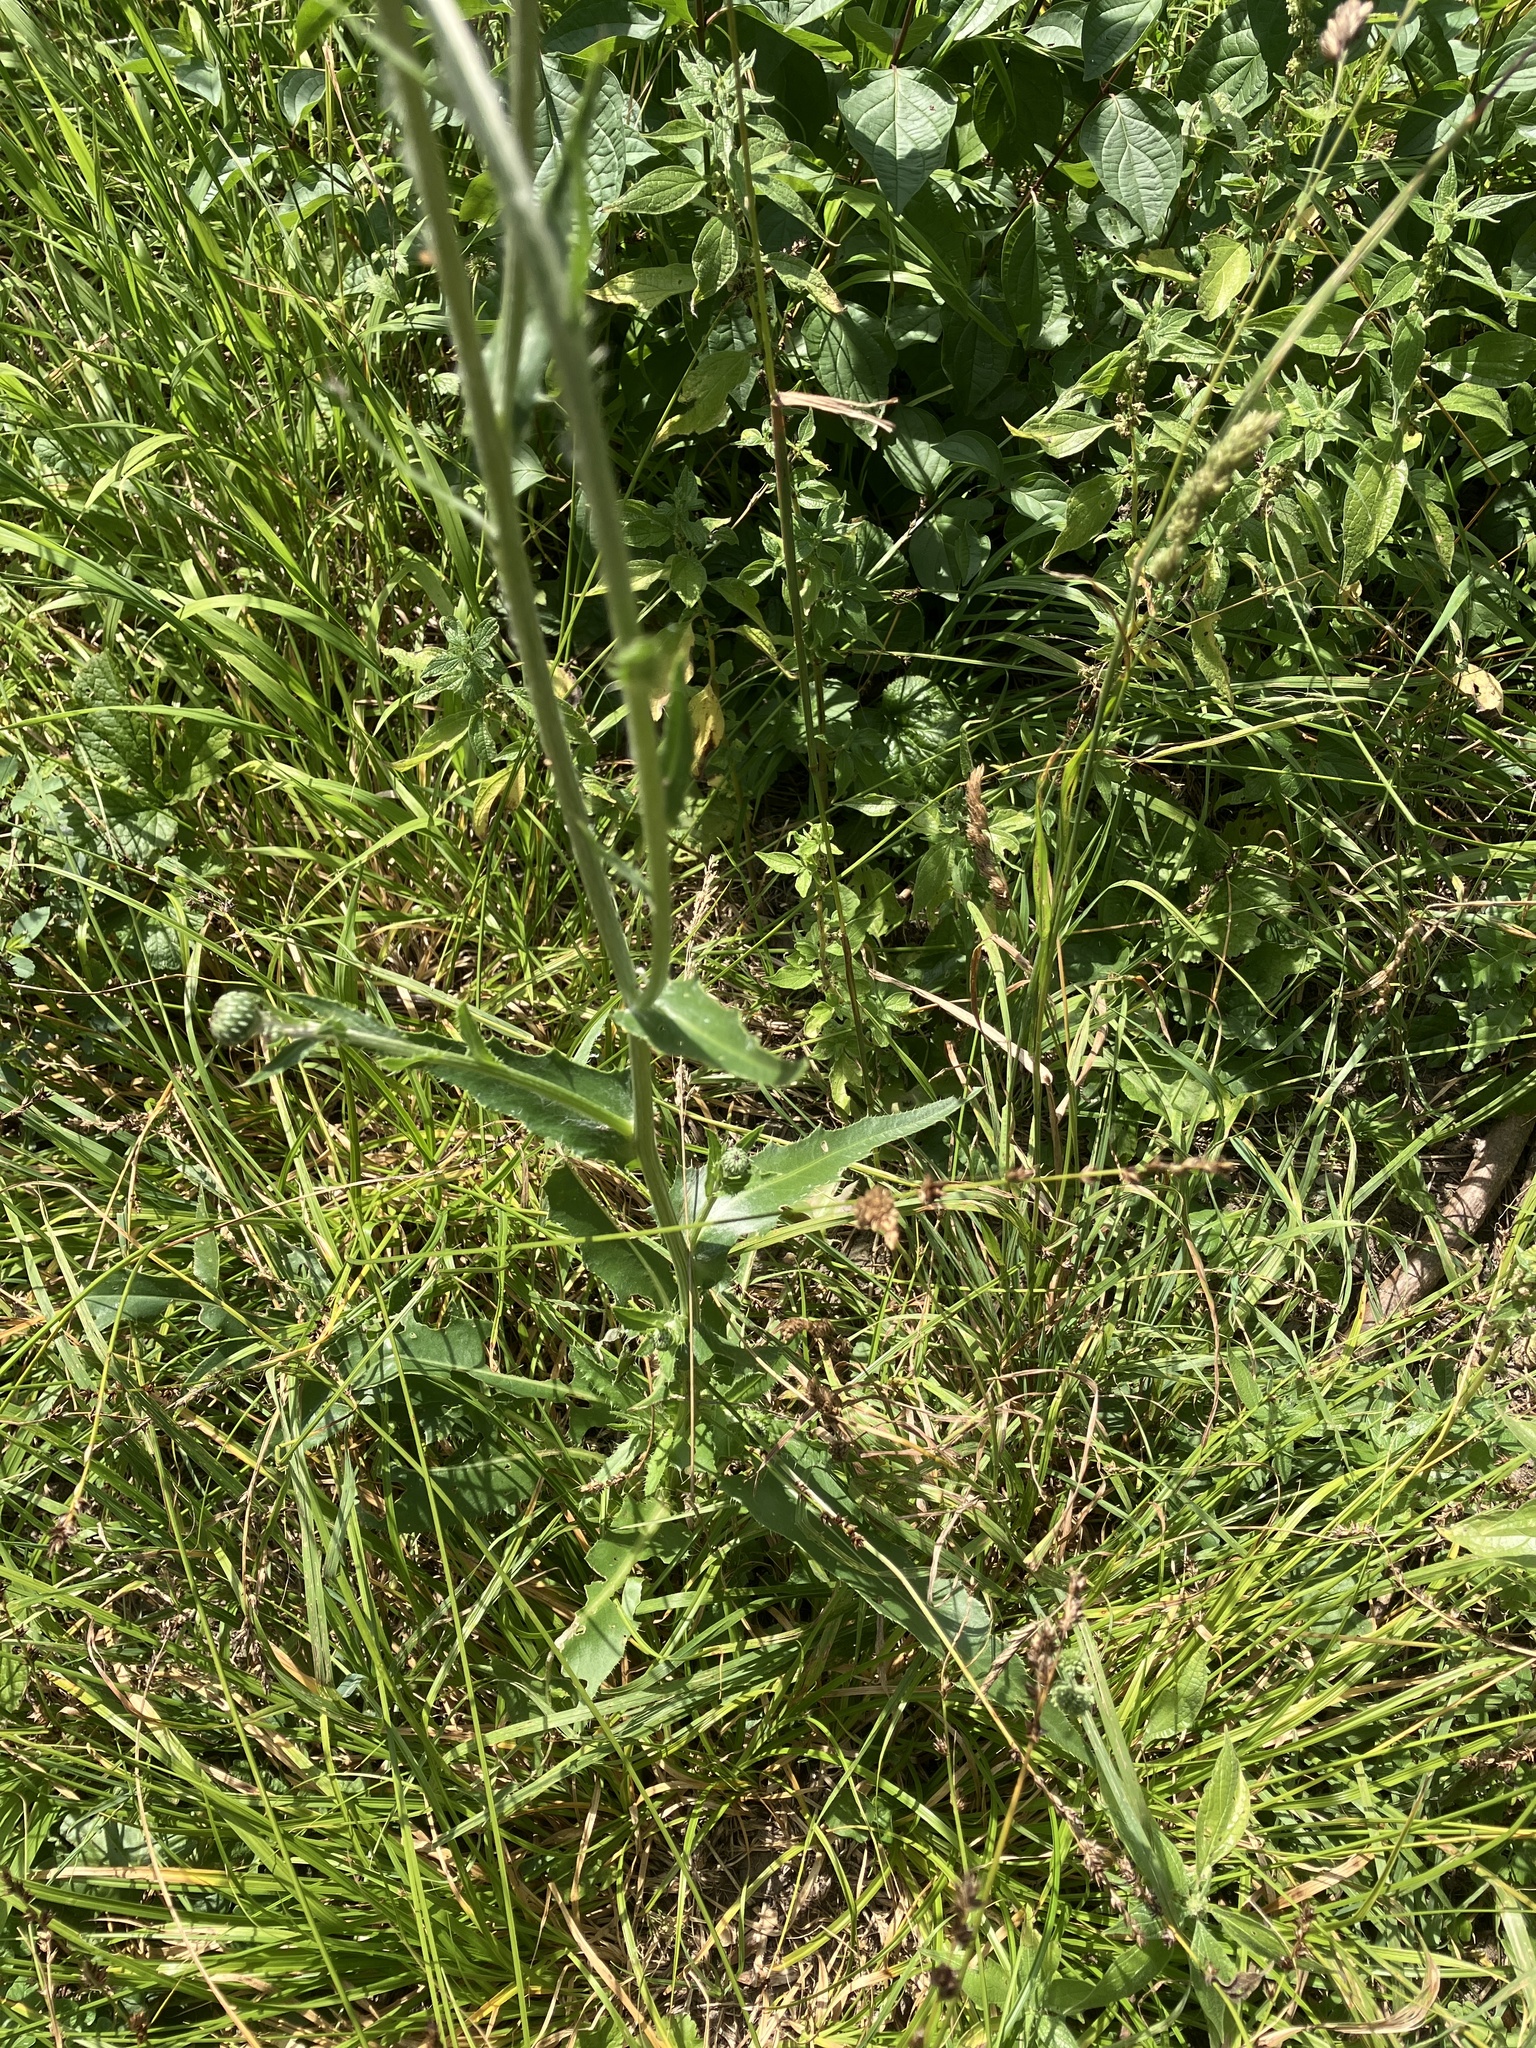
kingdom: Plantae
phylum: Tracheophyta
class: Magnoliopsida
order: Asterales
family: Asteraceae
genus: Cirsium
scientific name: Cirsium canum
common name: Queen anne's thistle
